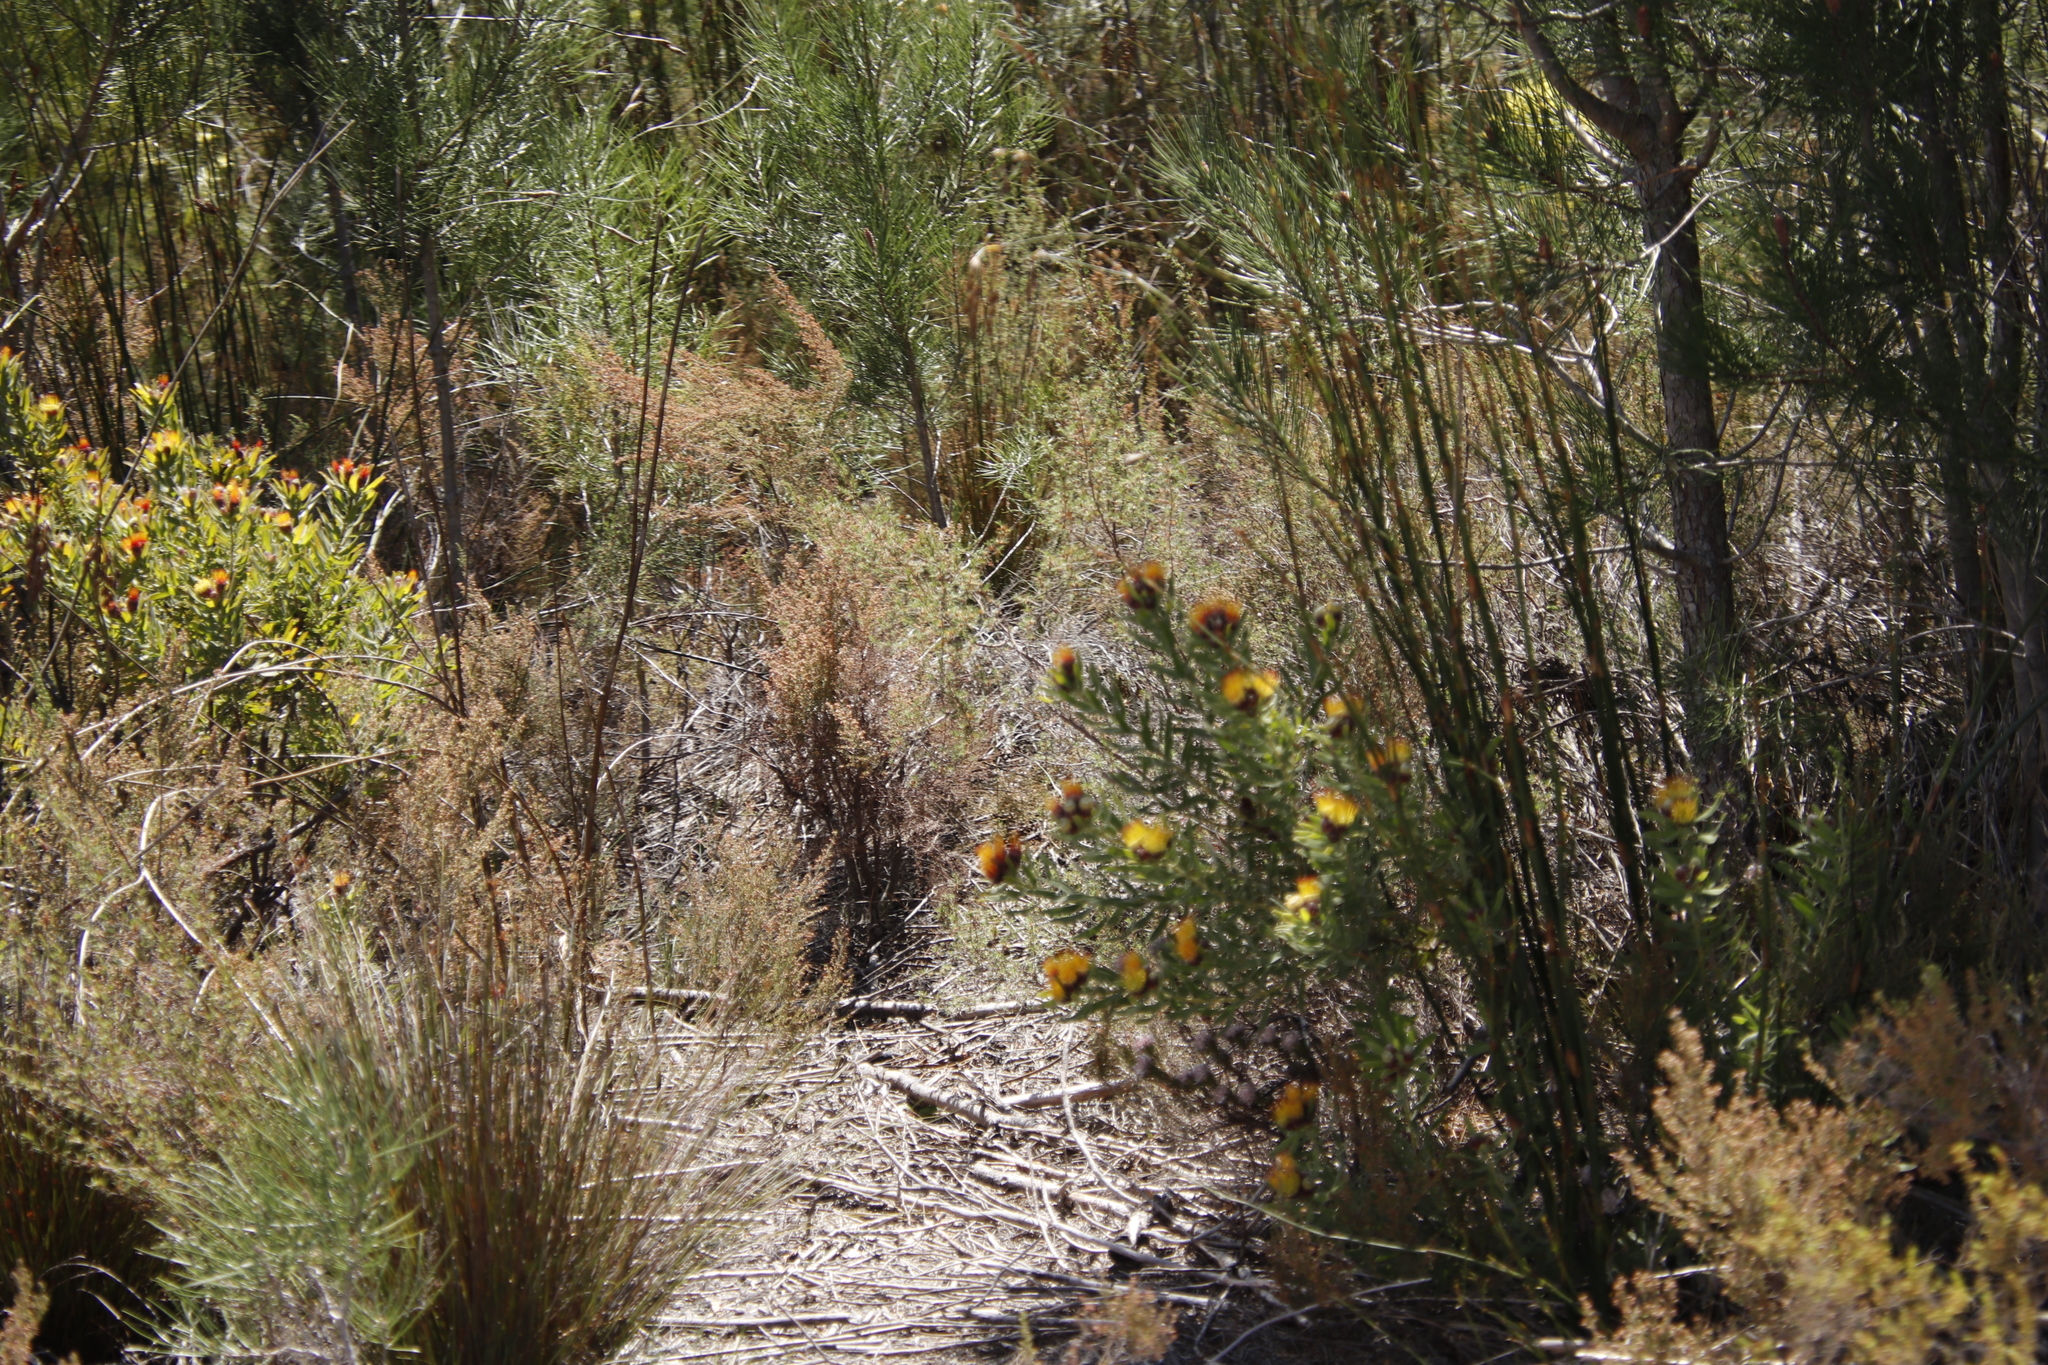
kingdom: Plantae
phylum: Tracheophyta
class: Magnoliopsida
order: Proteales
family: Proteaceae
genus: Leucospermum
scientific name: Leucospermum oleifolium
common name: Matches
